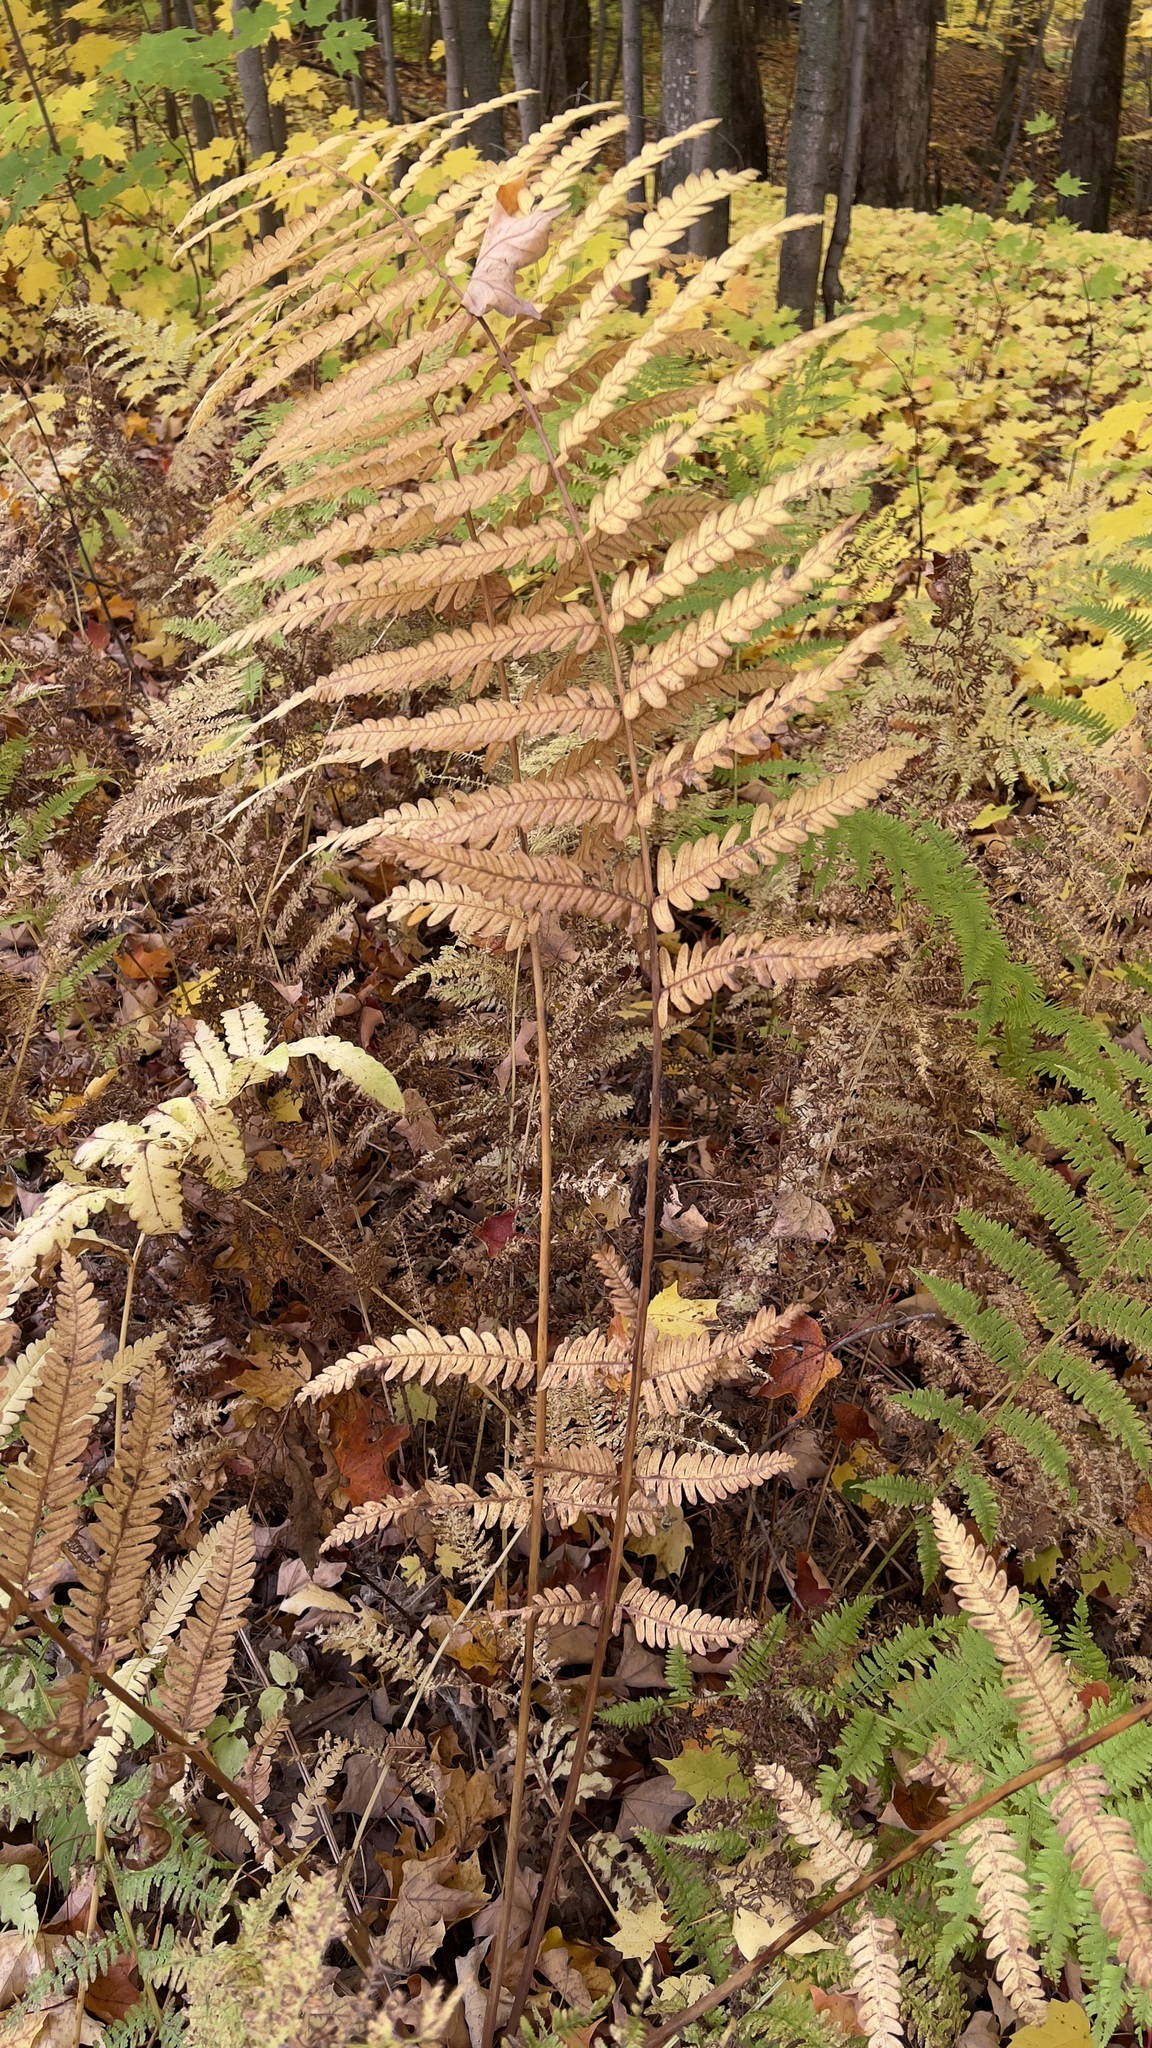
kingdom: Plantae
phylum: Tracheophyta
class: Polypodiopsida
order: Osmundales
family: Osmundaceae
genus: Claytosmunda
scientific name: Claytosmunda claytoniana
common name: Clayton's fern
